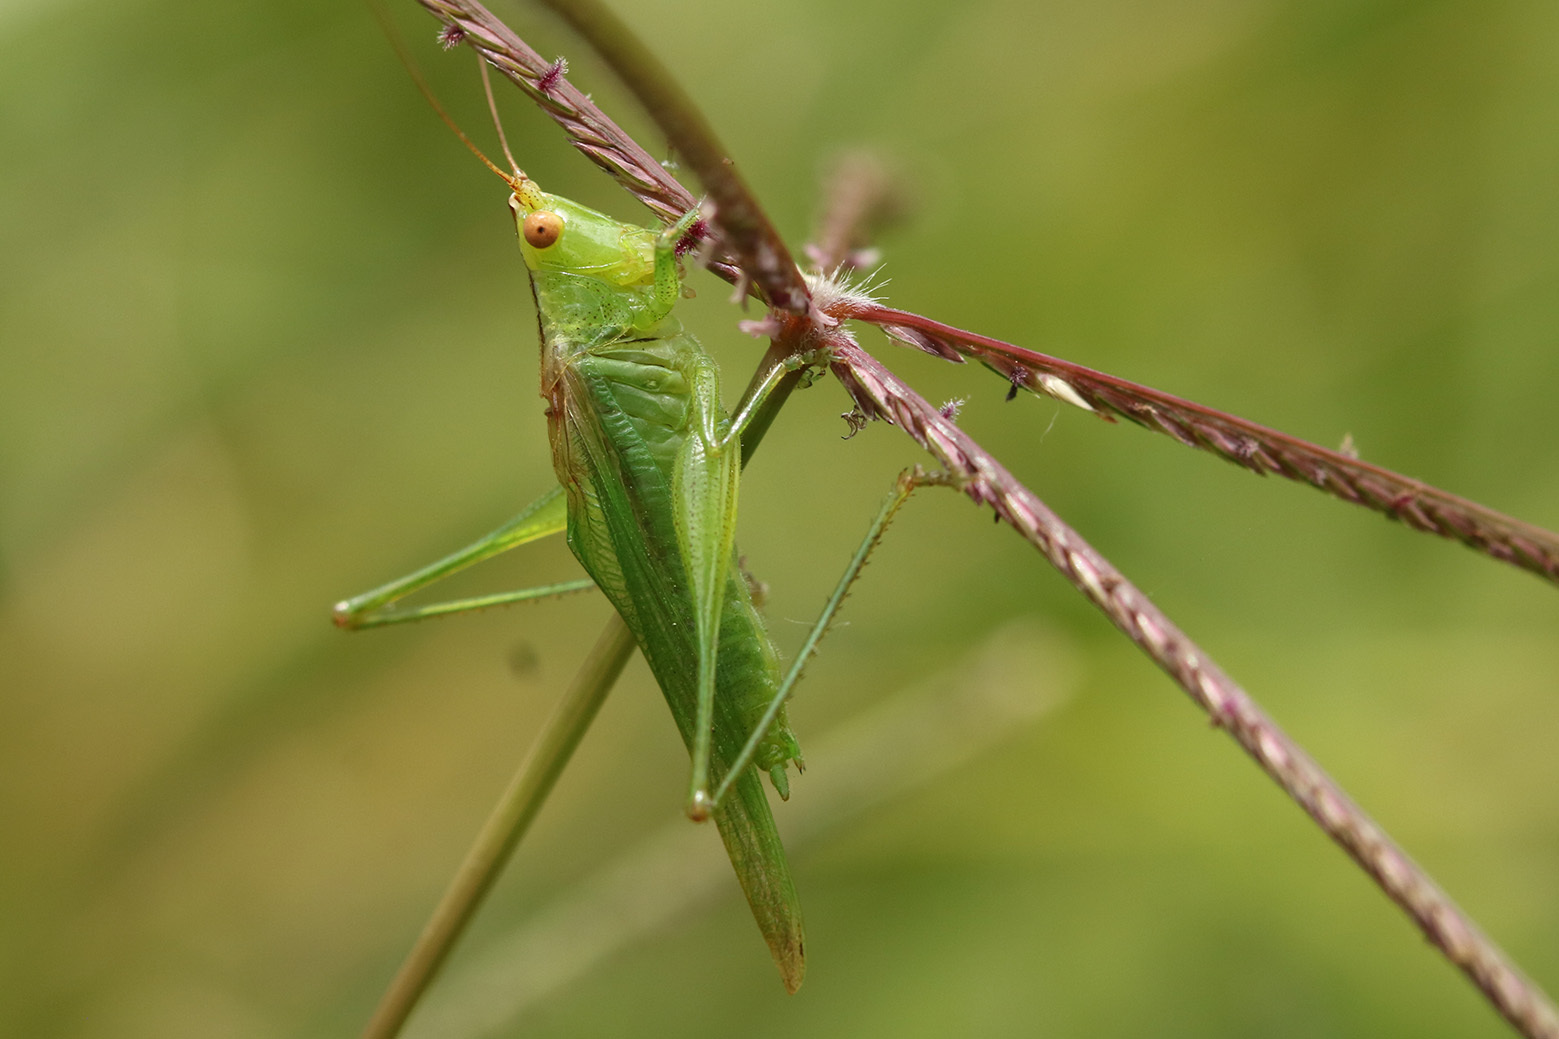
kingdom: Animalia
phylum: Arthropoda
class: Insecta
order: Orthoptera
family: Tettigoniidae
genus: Conocephalus
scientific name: Conocephalus longipes
